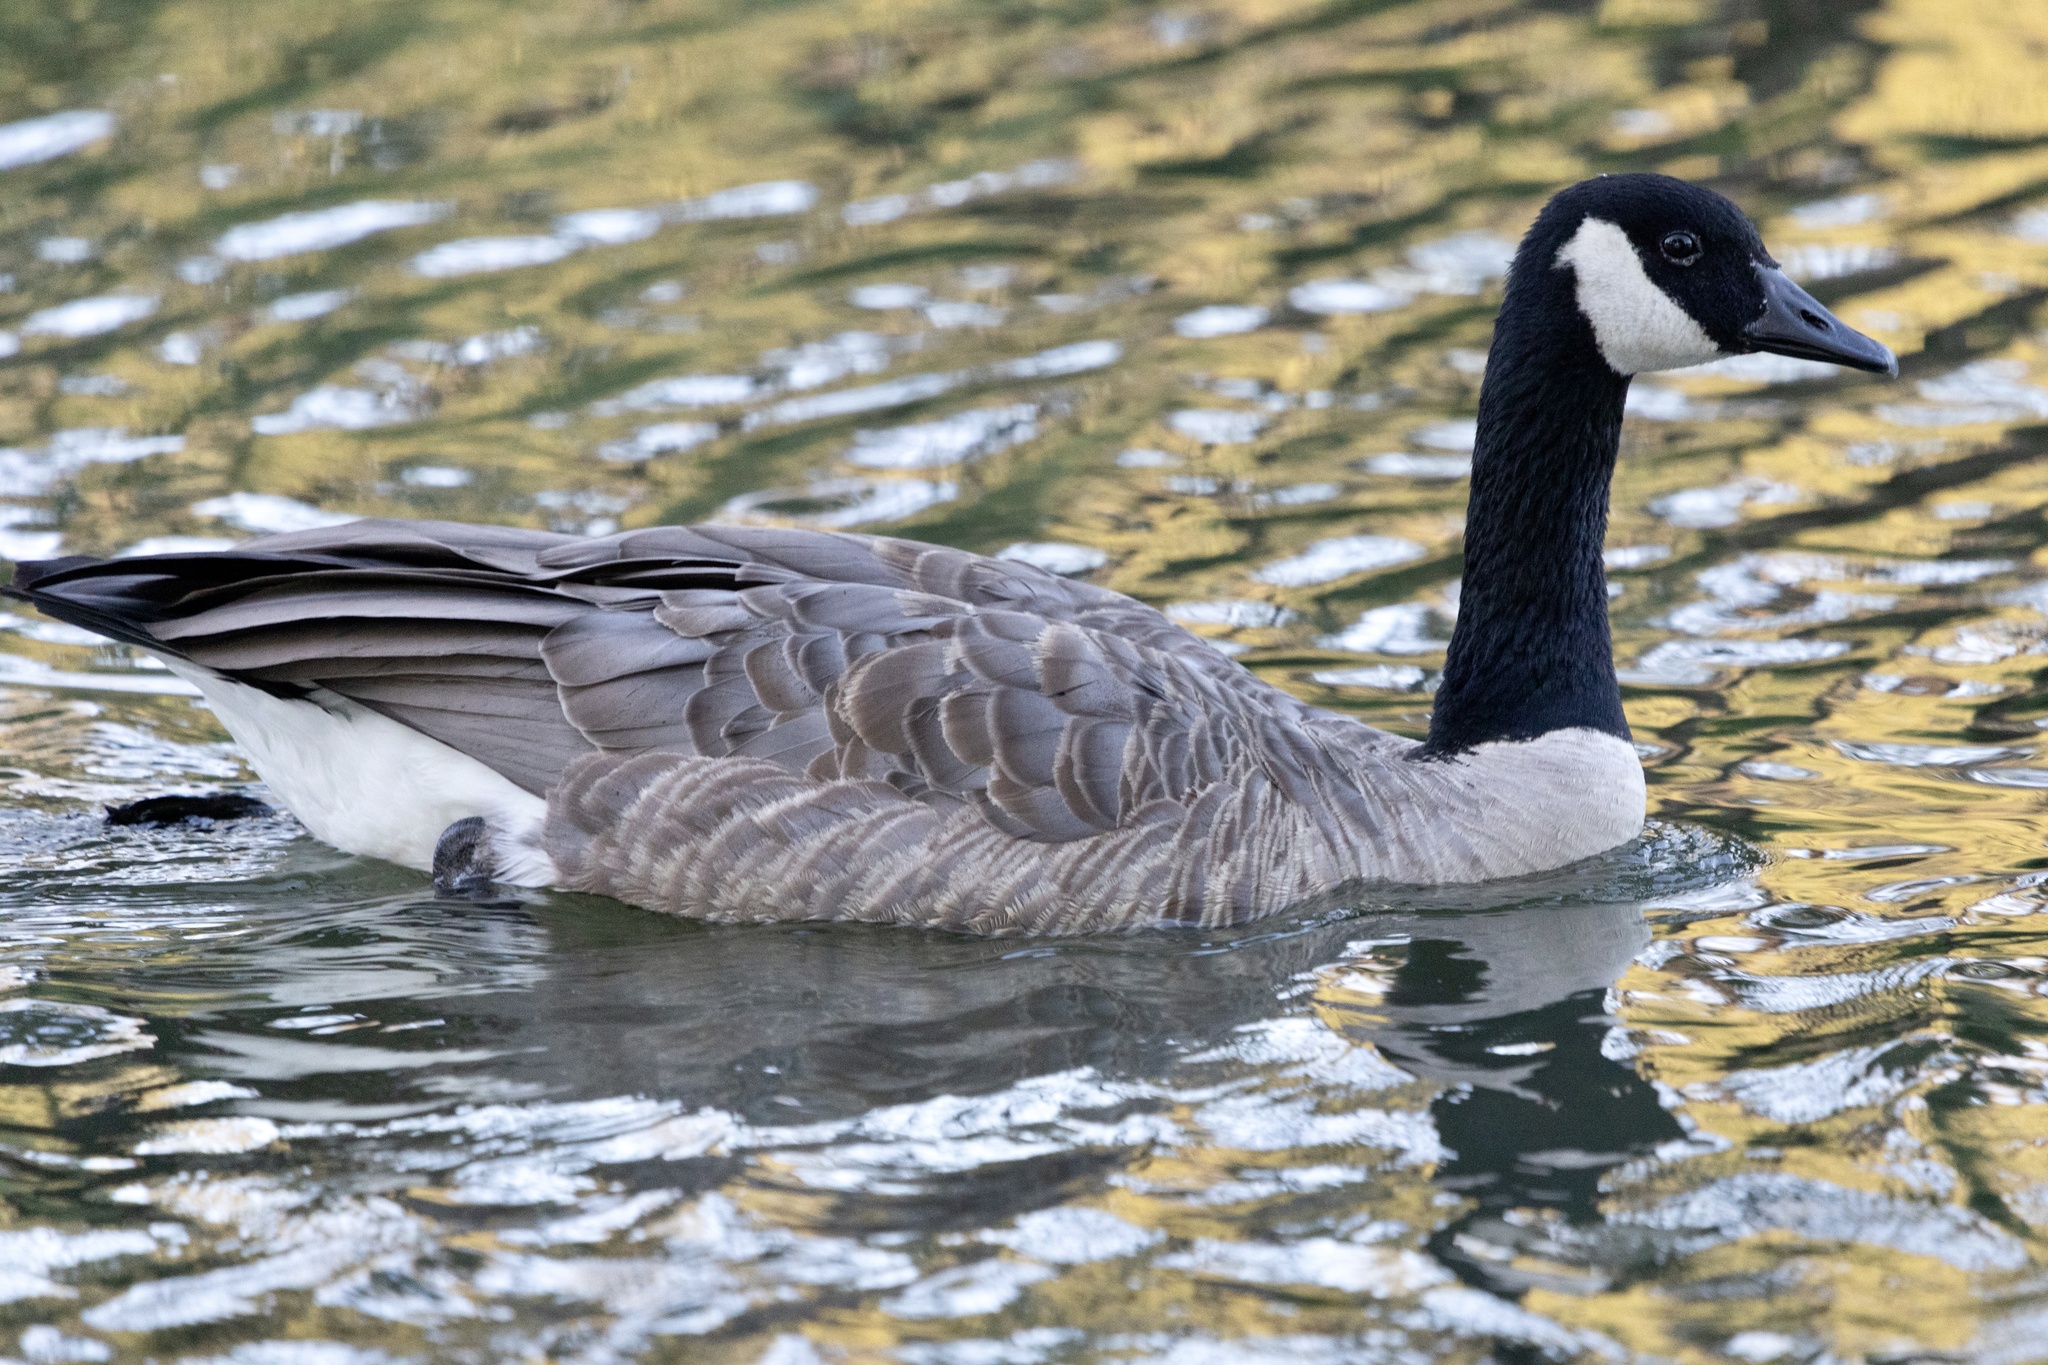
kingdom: Animalia
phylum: Chordata
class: Aves
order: Anseriformes
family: Anatidae
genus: Branta
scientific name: Branta canadensis
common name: Canada goose
